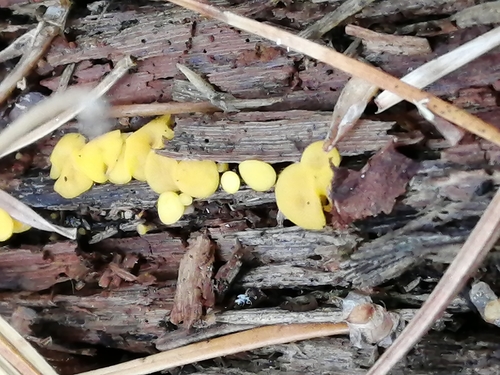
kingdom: Fungi
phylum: Ascomycota
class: Leotiomycetes
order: Helotiales
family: Pezizellaceae
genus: Calycina
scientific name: Calycina citrina
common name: Yellow fairy cups
